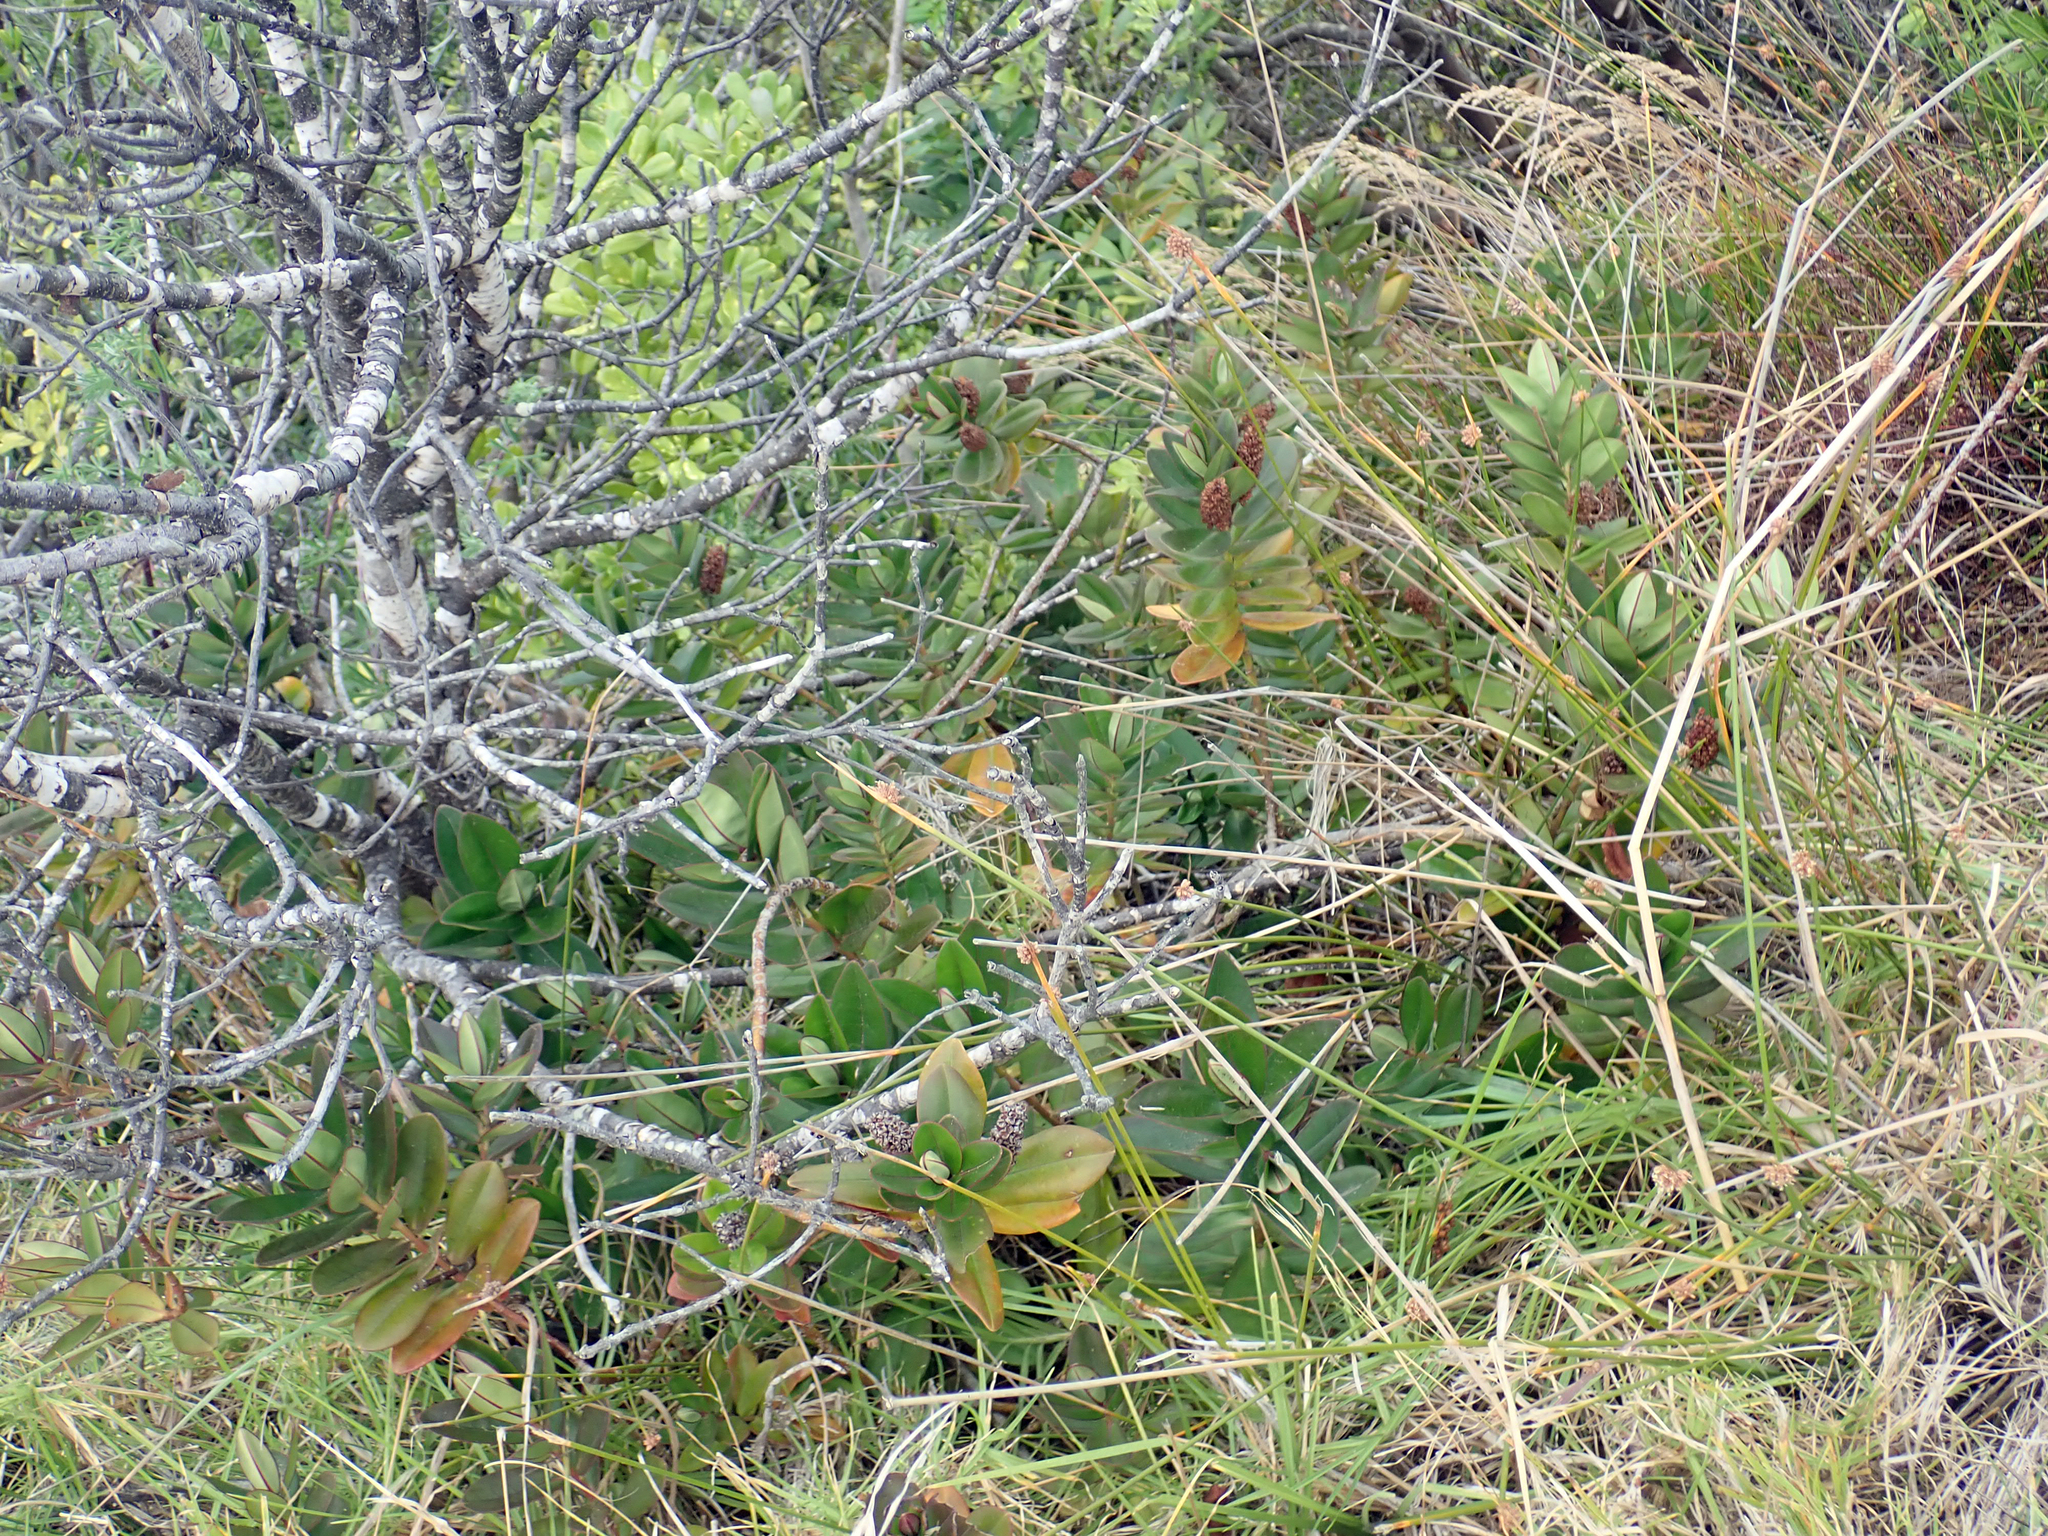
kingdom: Plantae
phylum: Tracheophyta
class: Magnoliopsida
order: Lamiales
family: Plantaginaceae
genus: Veronica
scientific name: Veronica speciosa
